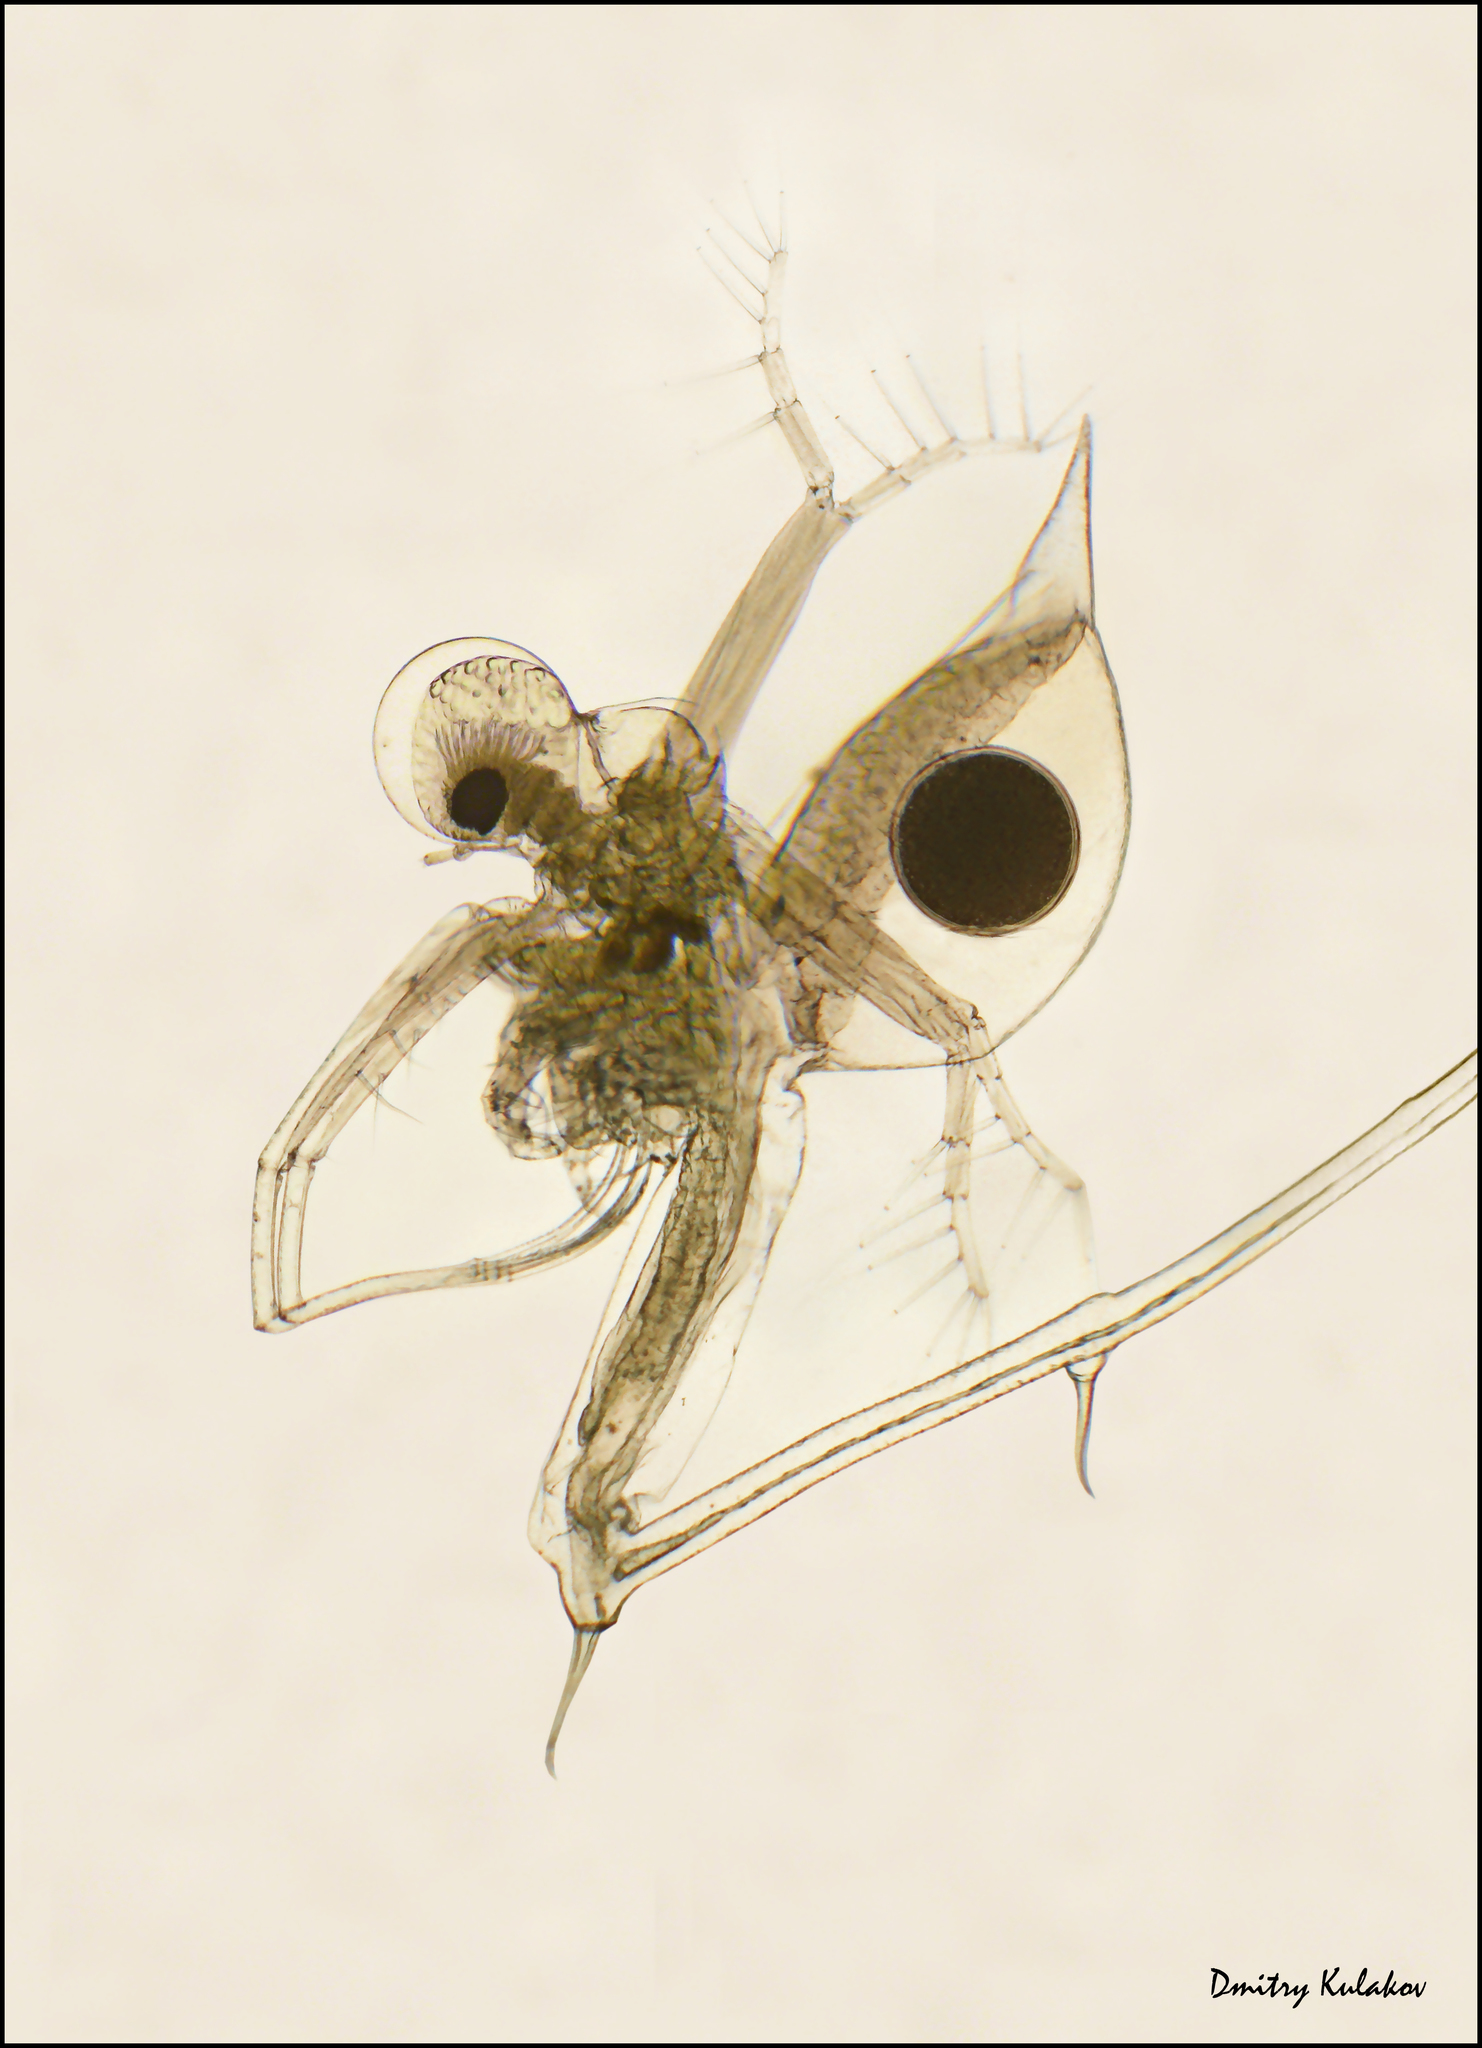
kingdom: Animalia
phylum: Arthropoda
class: Branchiopoda
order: Diplostraca
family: Cercopagidae
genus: Cercopagis
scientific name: Cercopagis pengoi
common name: Fishhook waterflea
